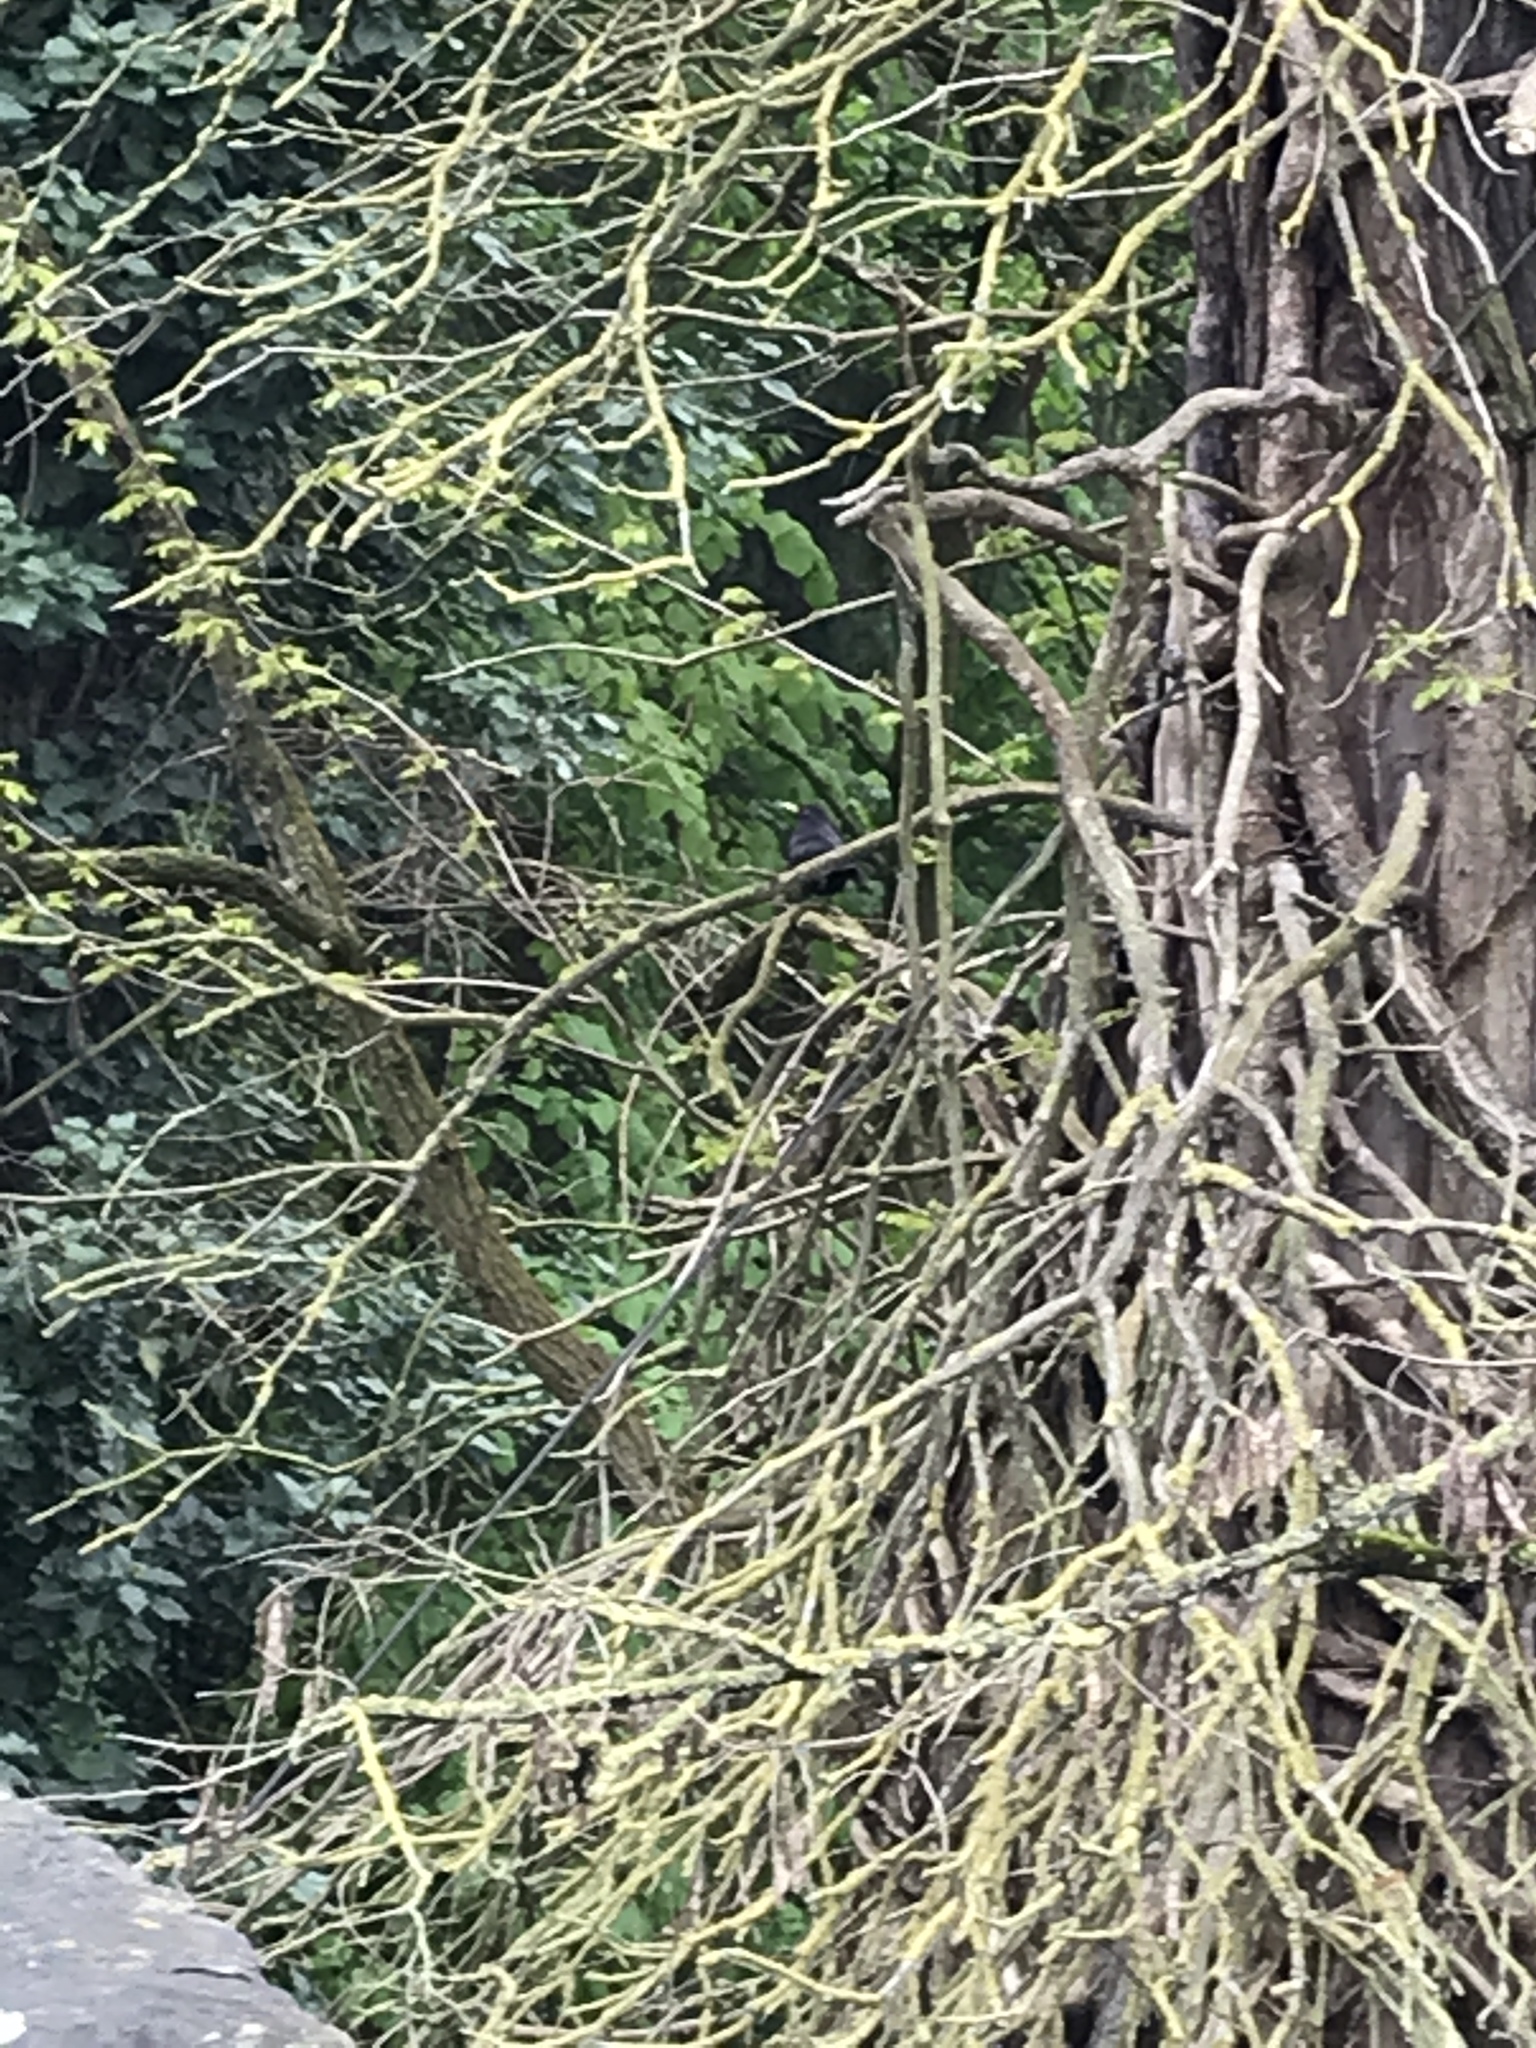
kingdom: Animalia
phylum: Chordata
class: Aves
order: Passeriformes
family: Turdidae
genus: Turdus
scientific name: Turdus merula
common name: Common blackbird
